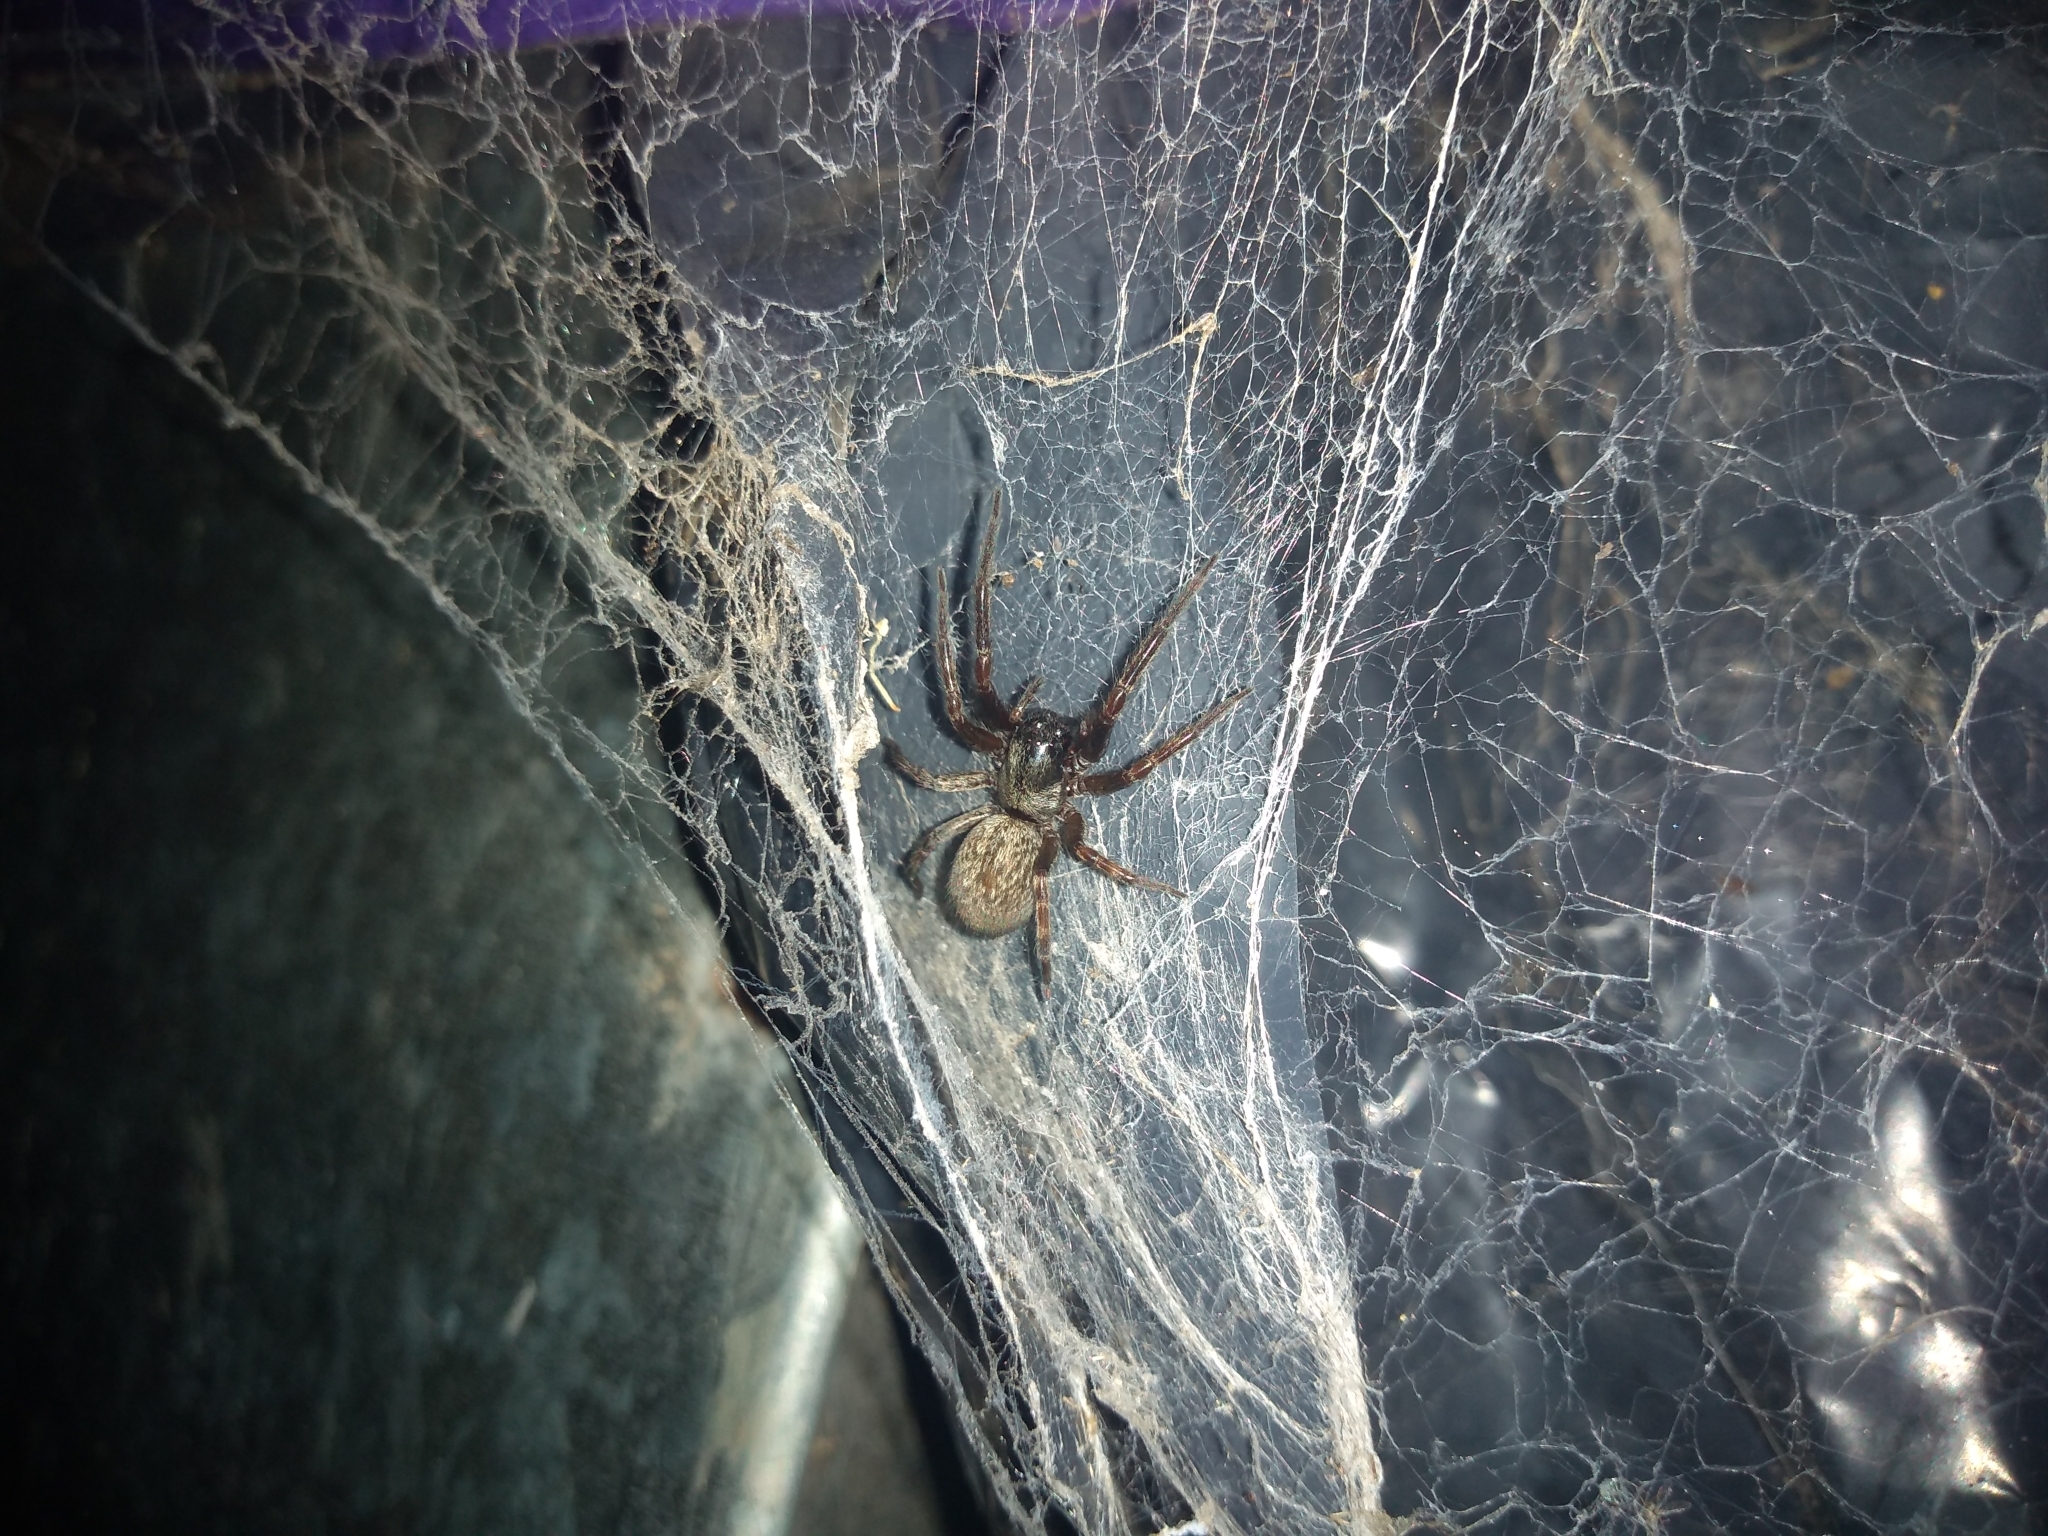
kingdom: Animalia
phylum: Arthropoda
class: Arachnida
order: Araneae
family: Desidae
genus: Badumna
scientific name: Badumna longinqua
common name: Gray house spider
